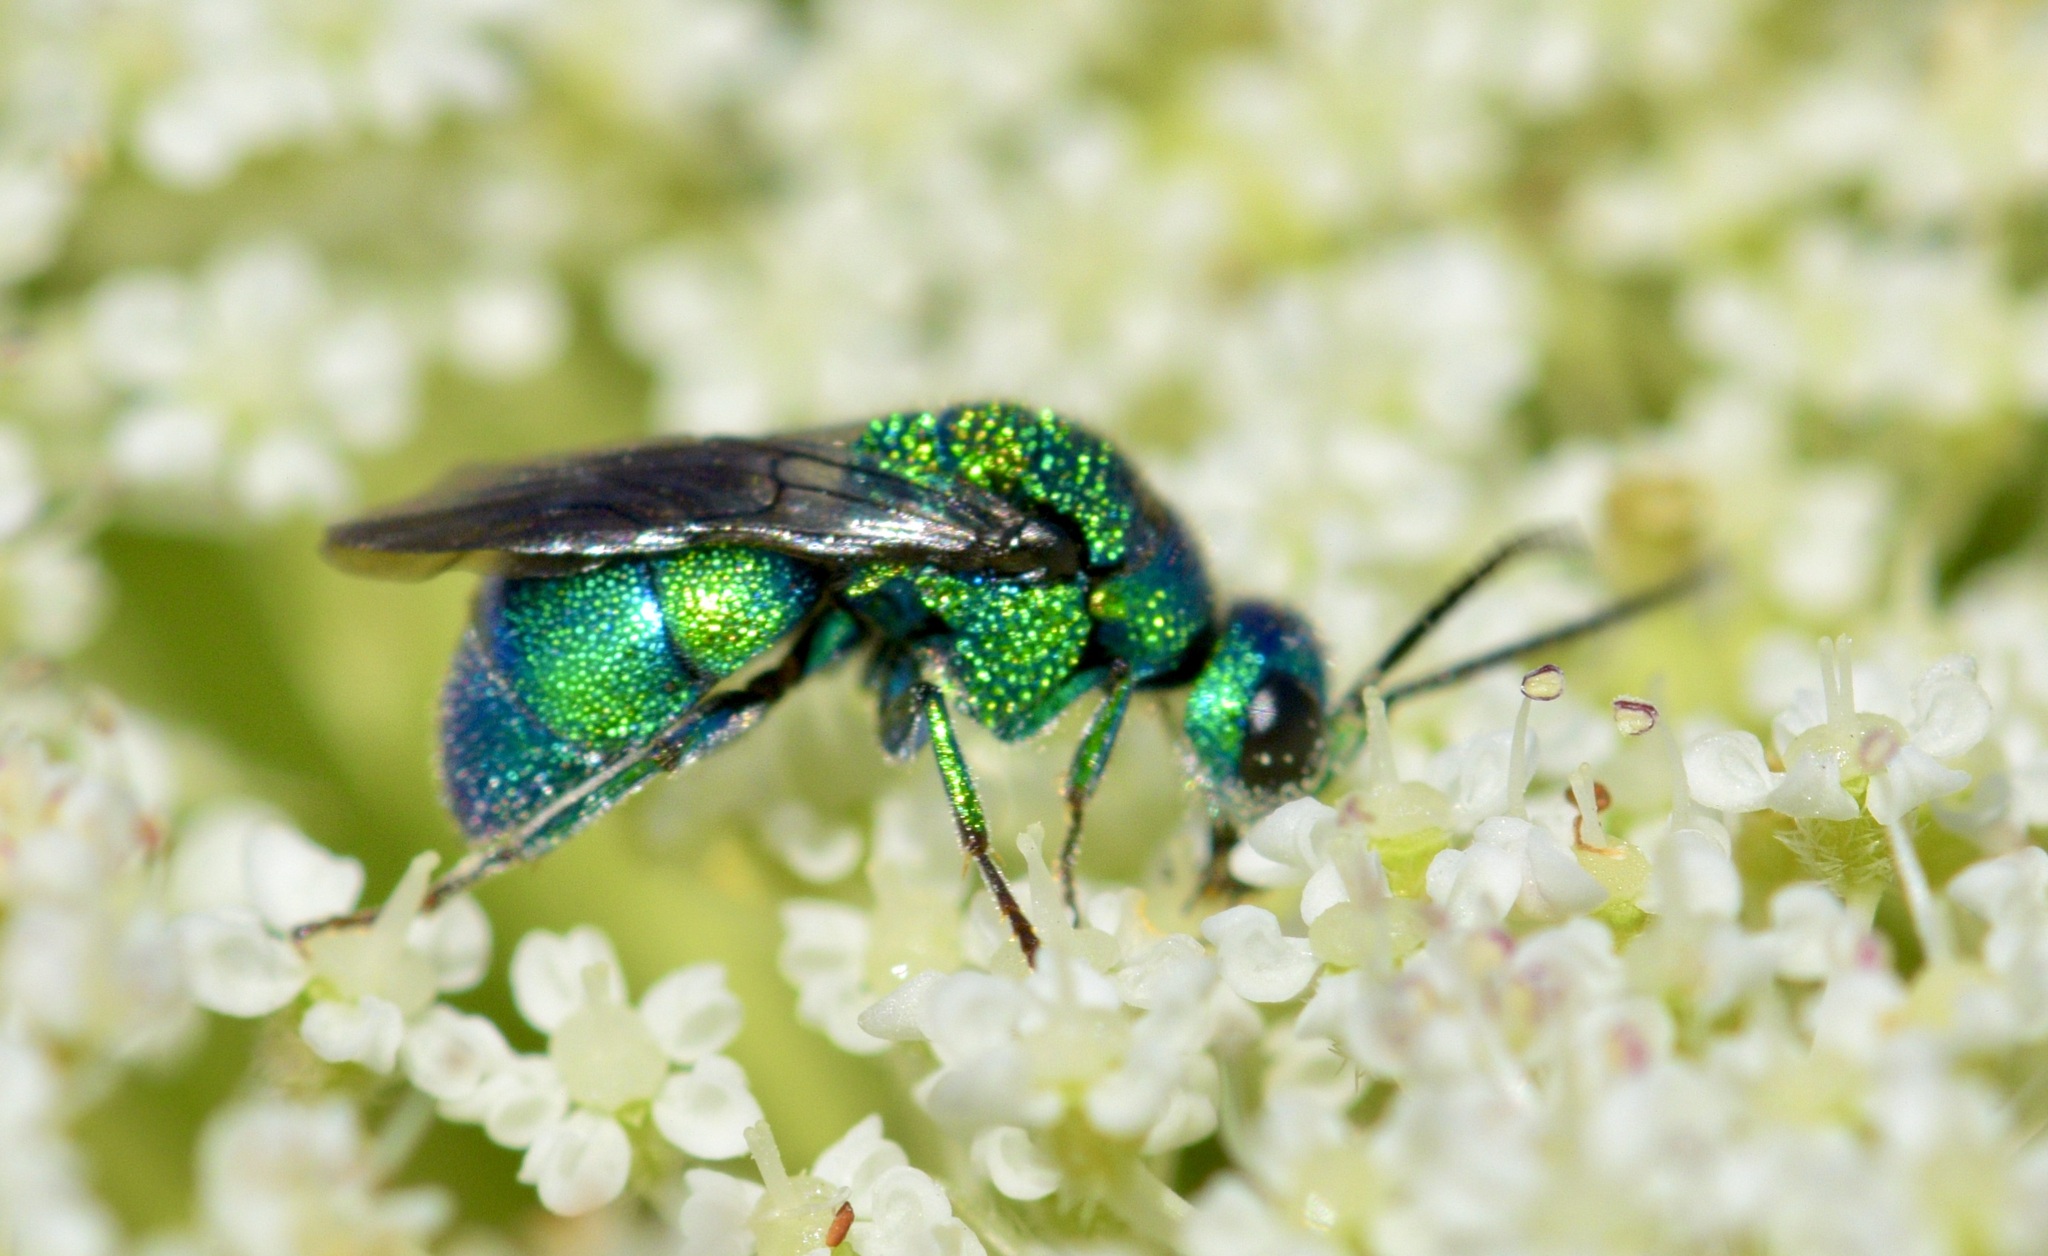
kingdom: Animalia
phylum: Arthropoda
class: Insecta
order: Hymenoptera
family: Chrysididae
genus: Holopyga
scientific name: Holopyga
